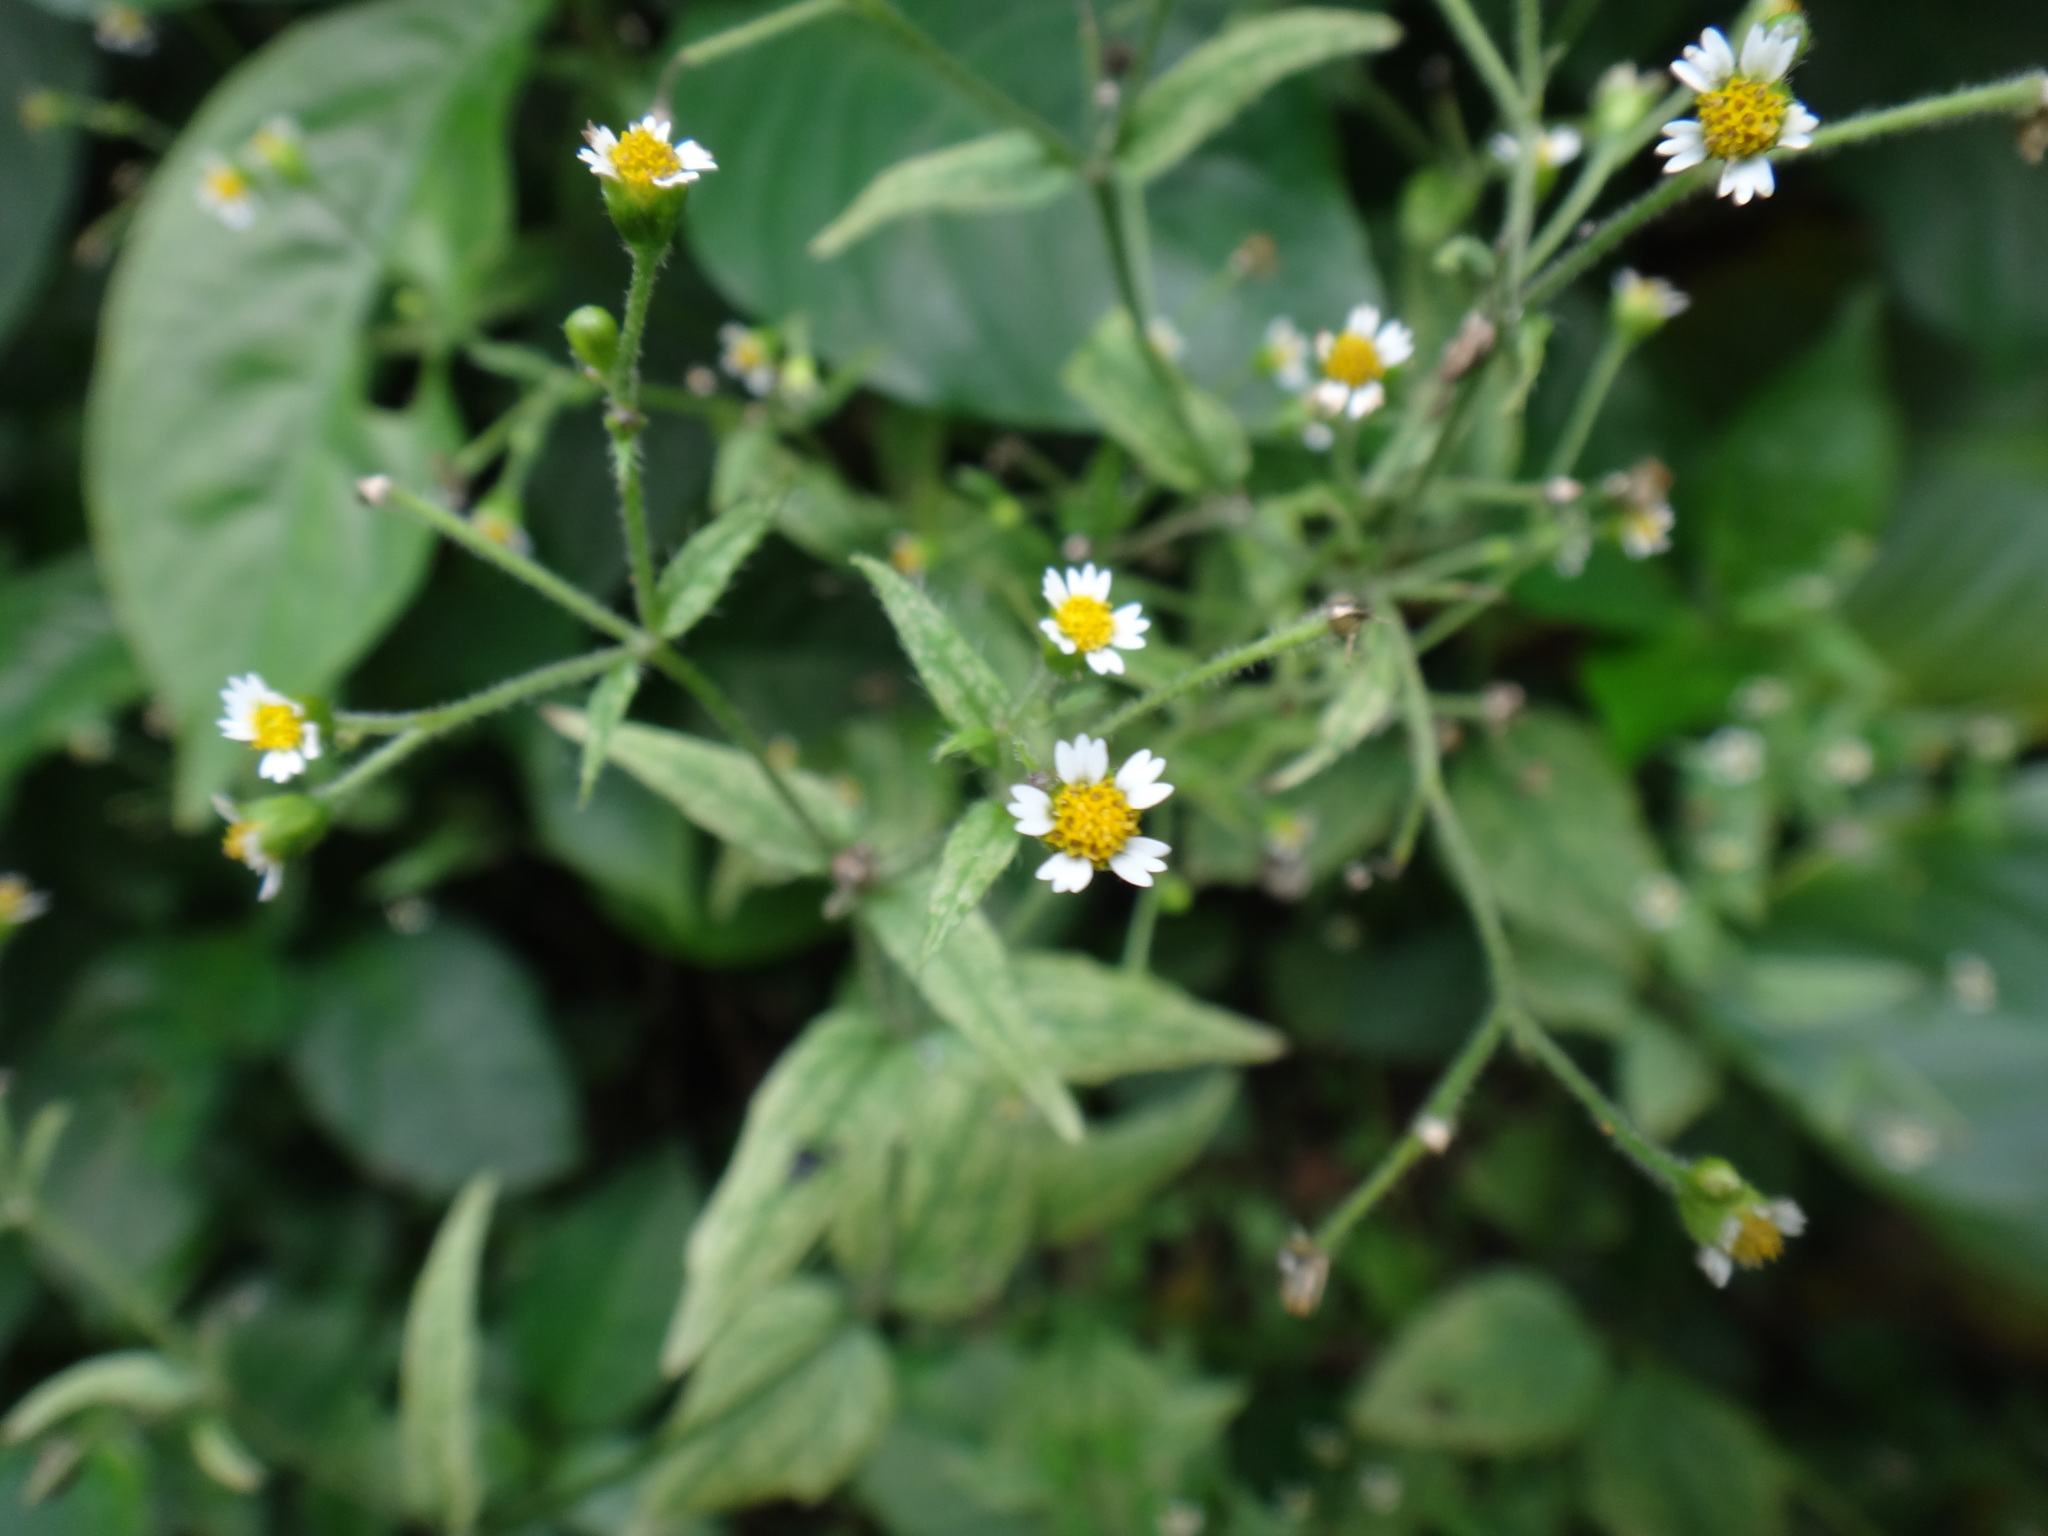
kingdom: Plantae
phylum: Tracheophyta
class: Magnoliopsida
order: Asterales
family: Asteraceae
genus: Galinsoga
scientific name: Galinsoga quadriradiata
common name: Shaggy soldier
